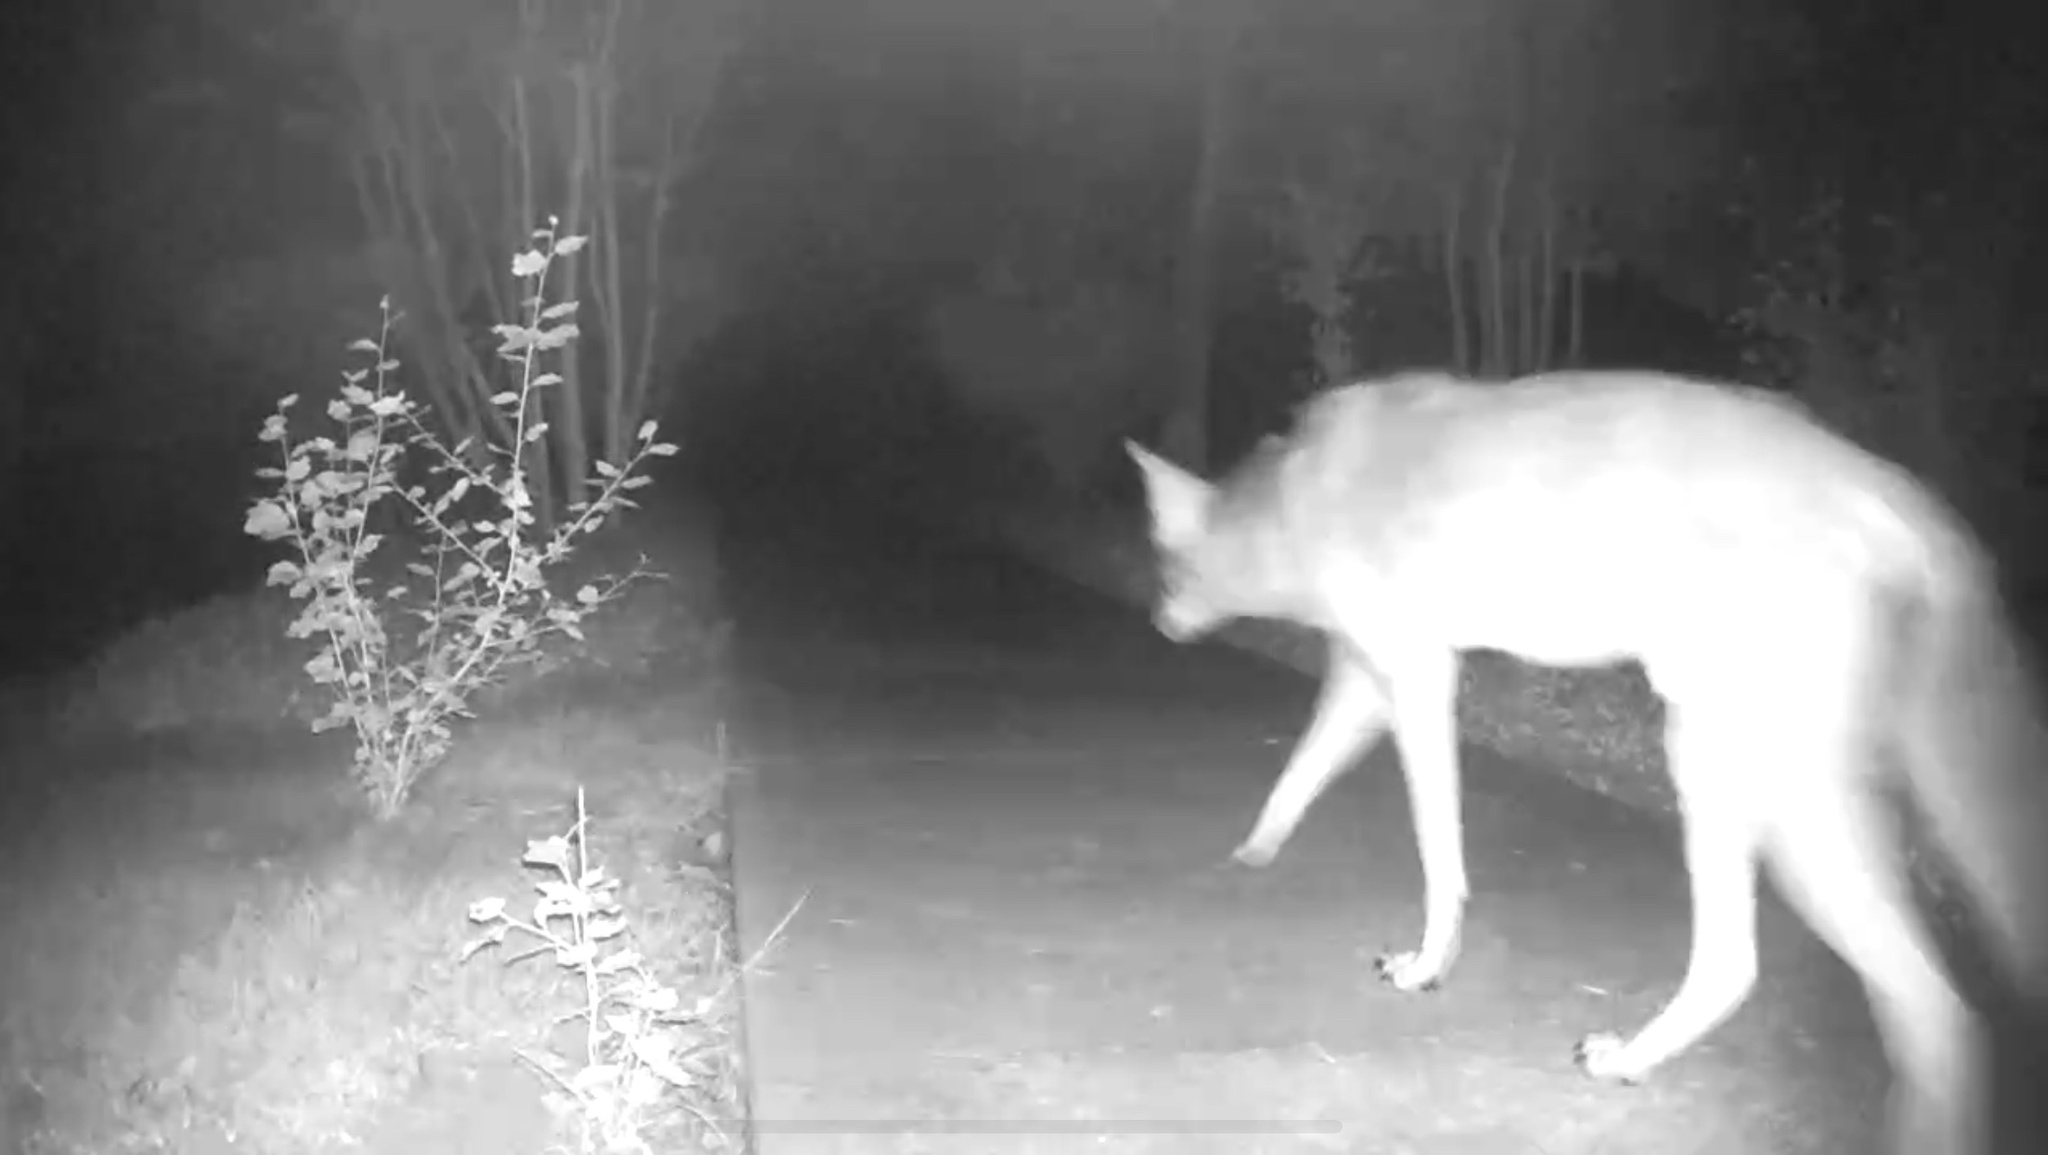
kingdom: Animalia
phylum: Chordata
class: Mammalia
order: Carnivora
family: Canidae
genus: Canis
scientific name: Canis latrans
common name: Coyote
